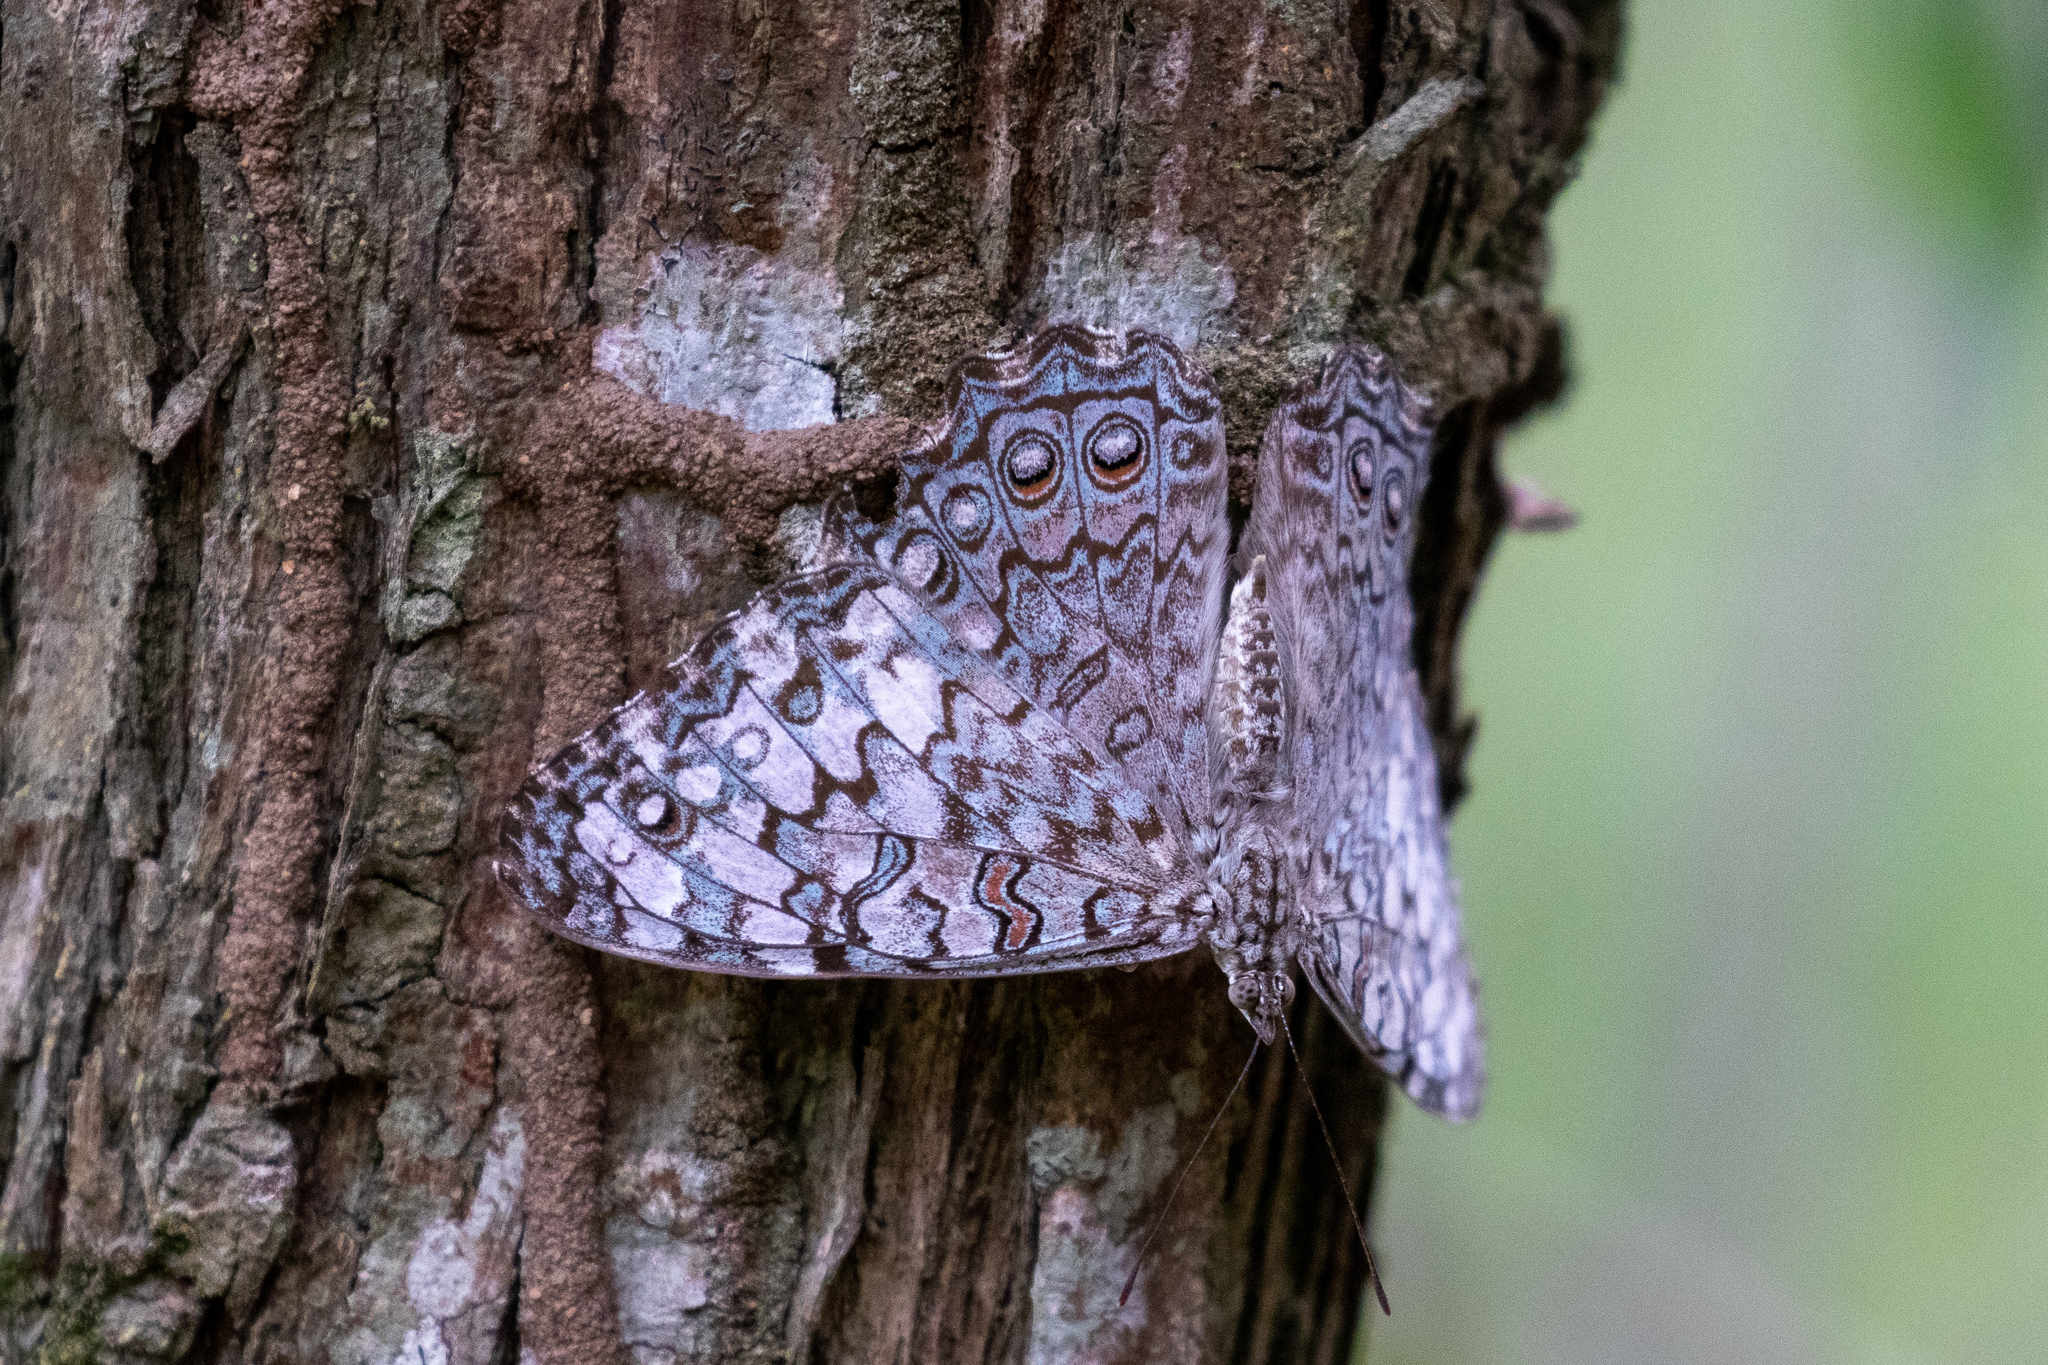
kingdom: Animalia
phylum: Arthropoda
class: Insecta
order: Lepidoptera
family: Nymphalidae
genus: Hamadryas
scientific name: Hamadryas februa
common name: Gray cracker
